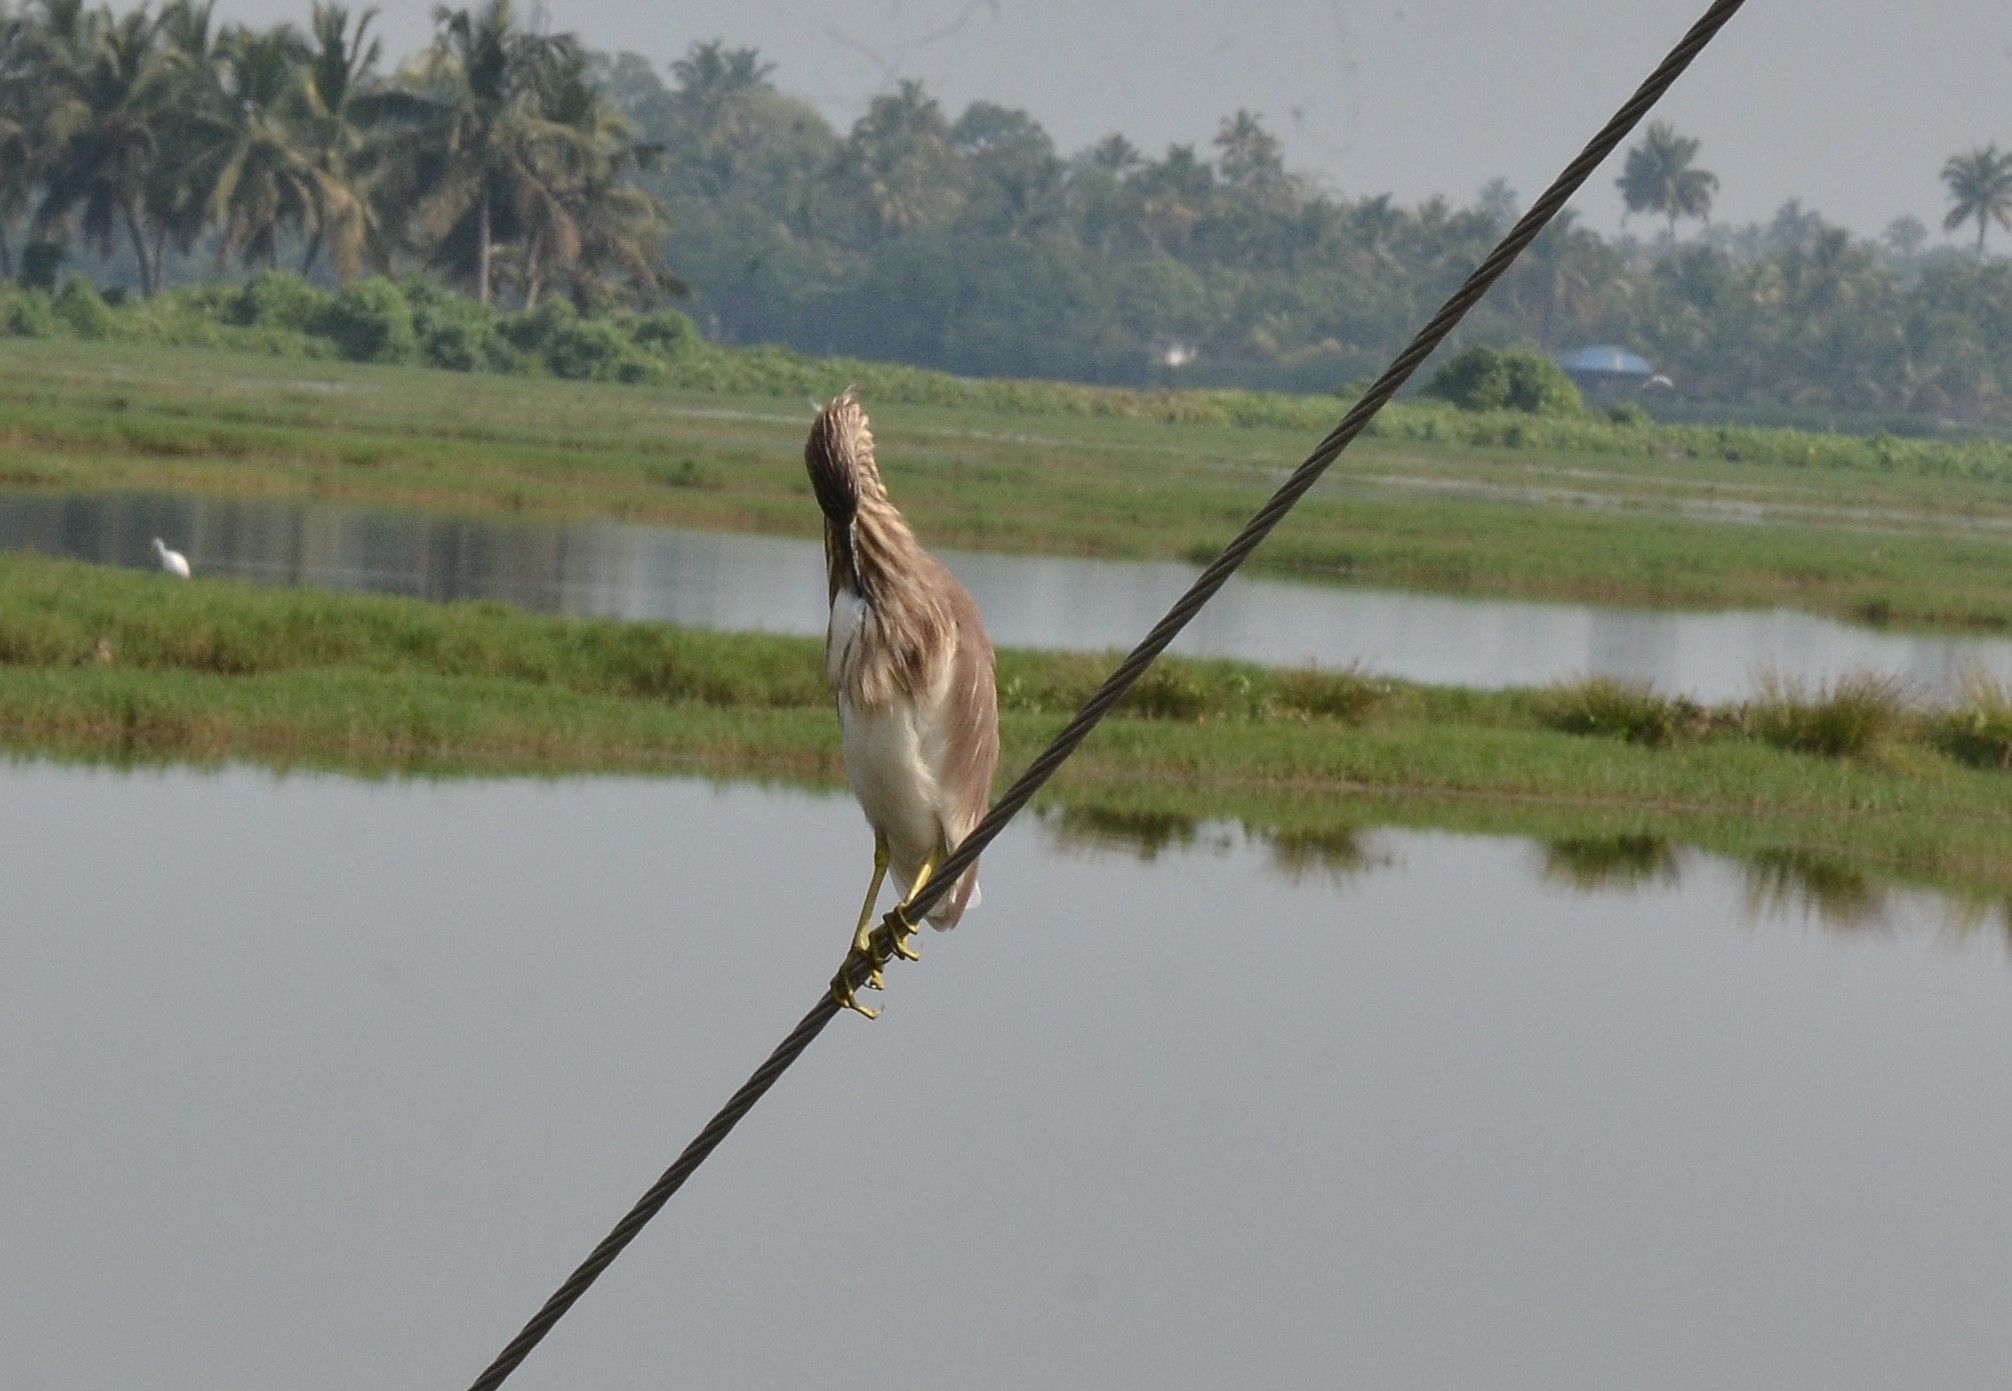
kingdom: Animalia
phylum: Chordata
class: Aves
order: Pelecaniformes
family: Ardeidae
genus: Ardeola
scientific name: Ardeola grayii
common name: Indian pond heron
